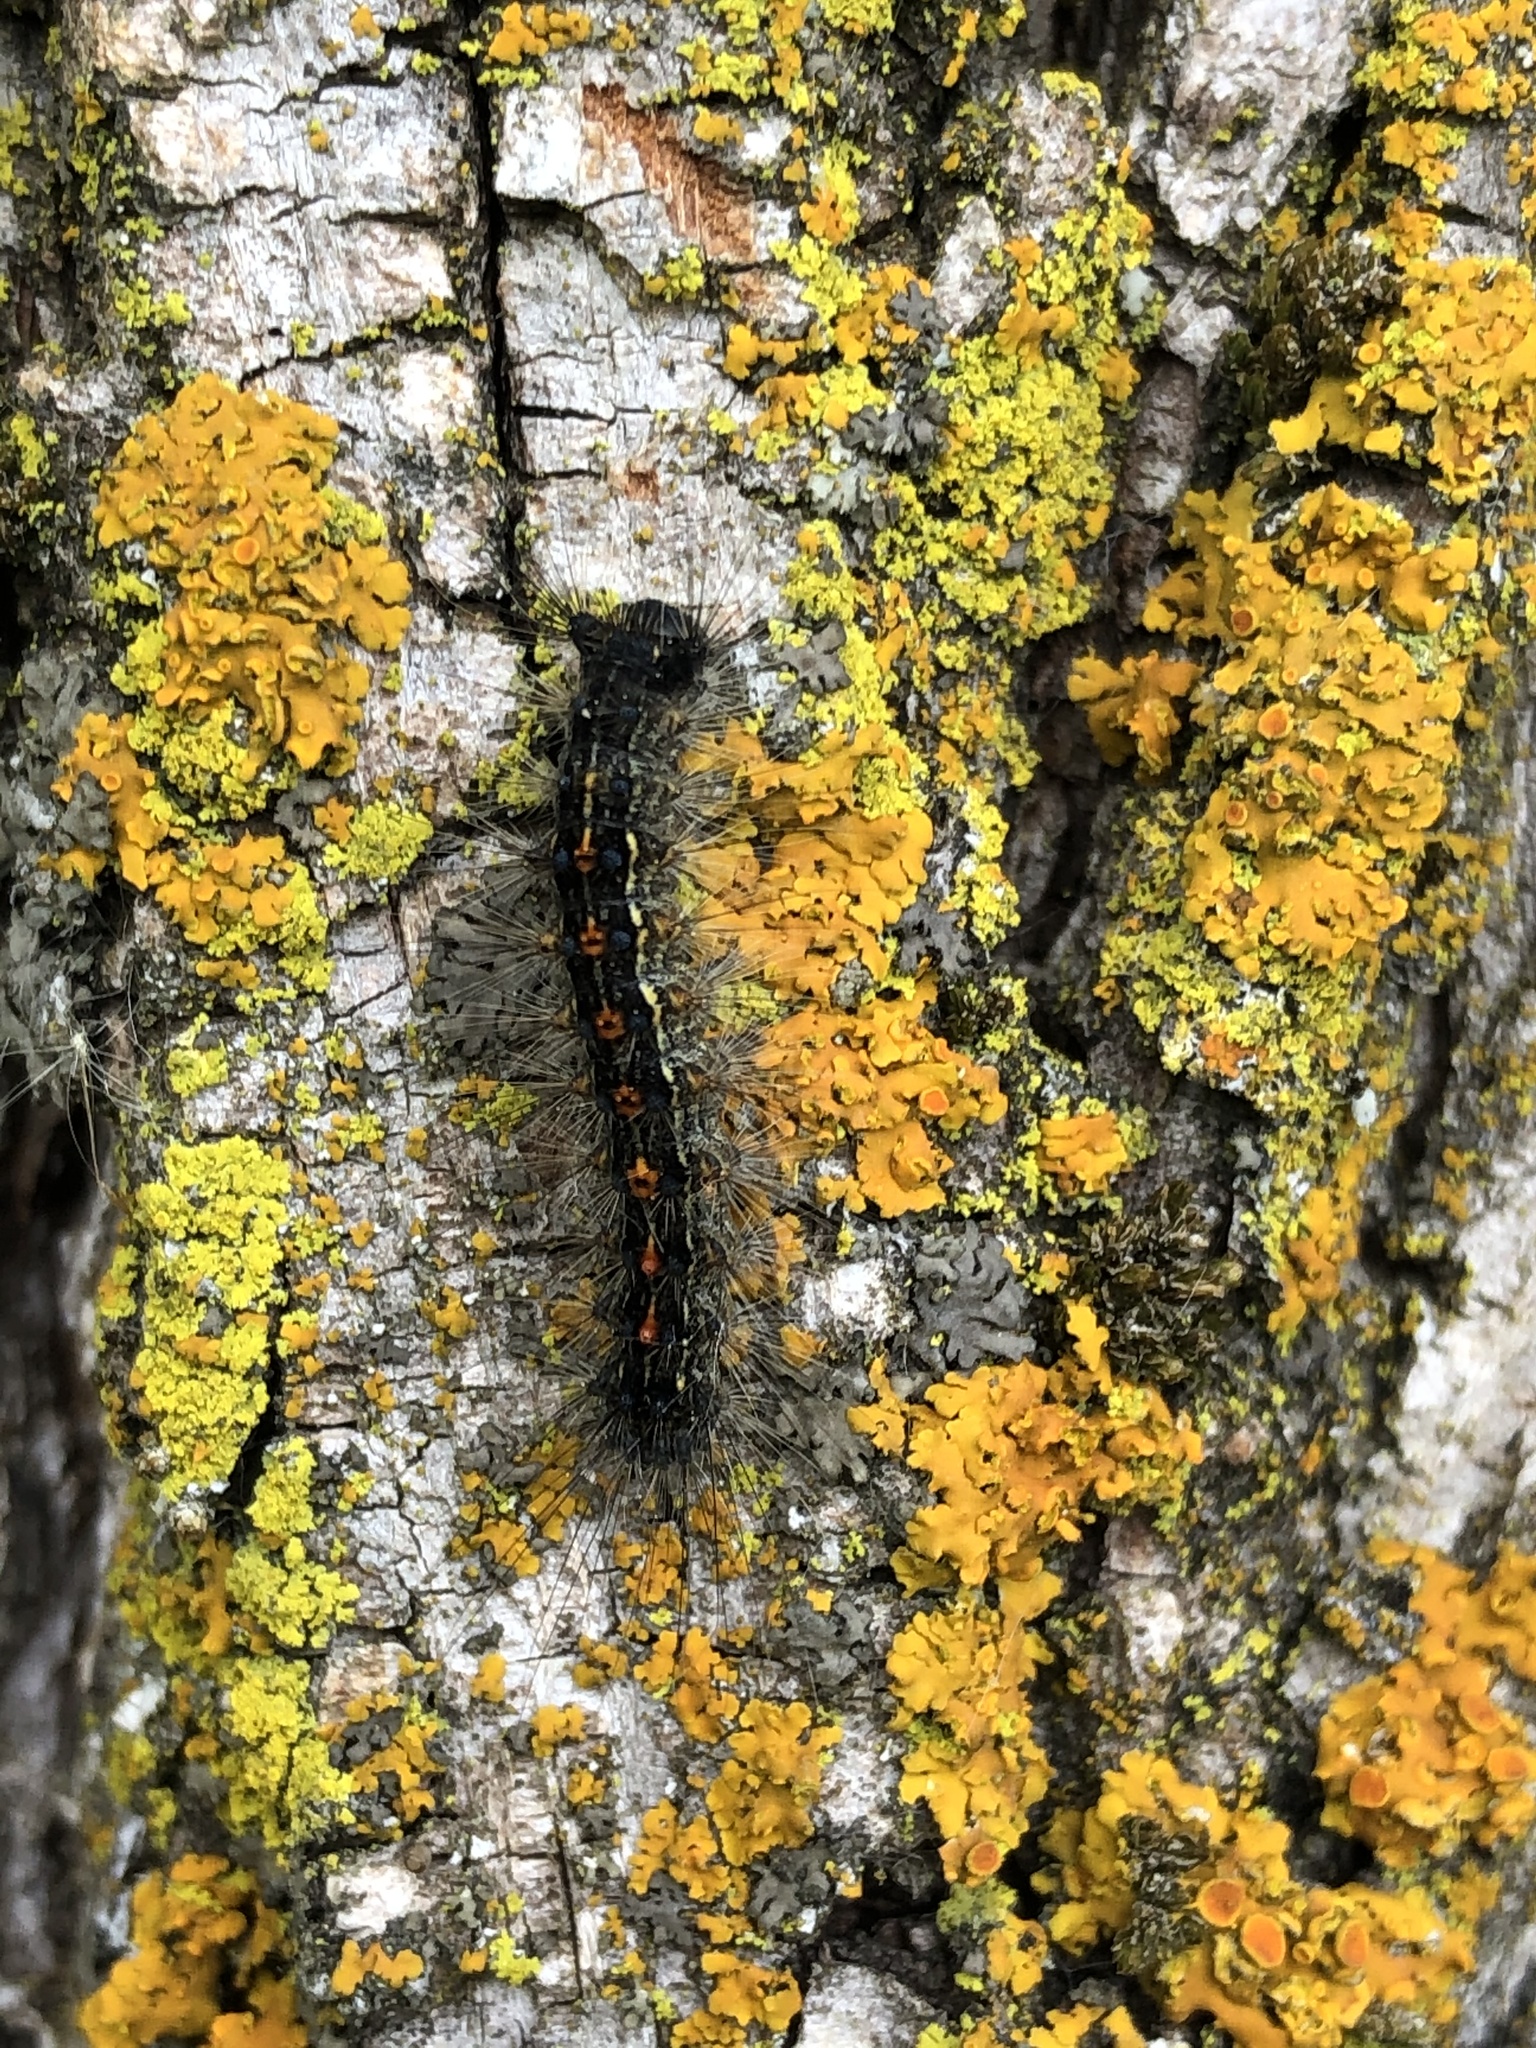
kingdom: Animalia
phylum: Arthropoda
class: Insecta
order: Lepidoptera
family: Erebidae
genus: Lymantria
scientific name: Lymantria dispar
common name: Gypsy moth
